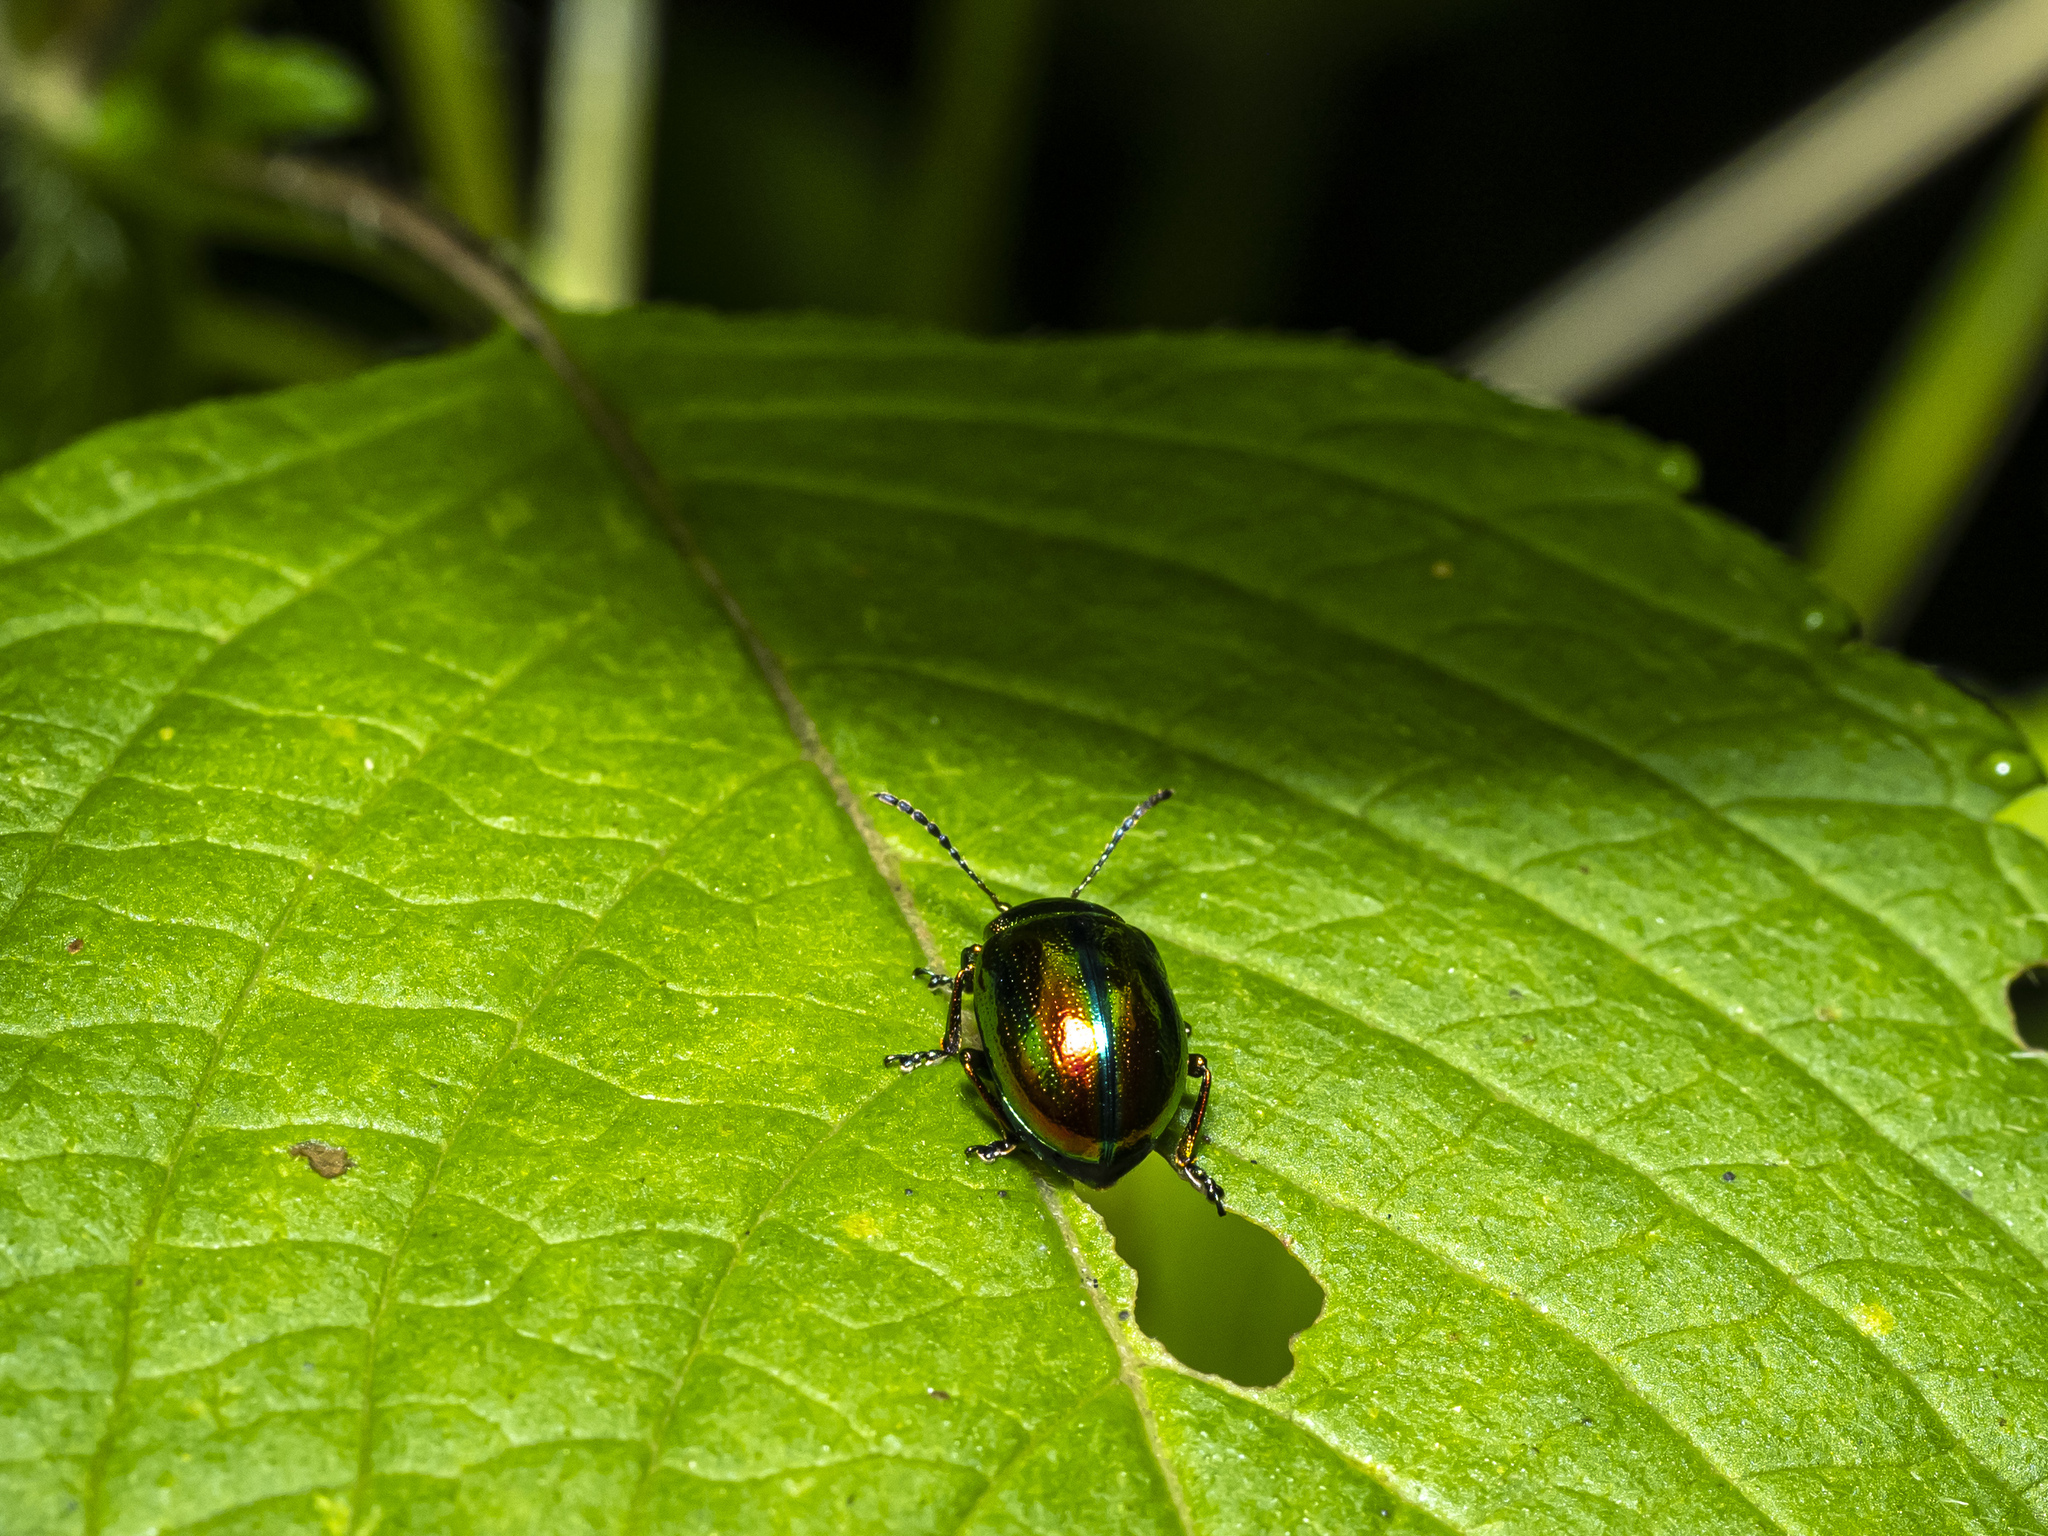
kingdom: Animalia
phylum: Arthropoda
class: Insecta
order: Coleoptera
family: Chrysomelidae
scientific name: Chrysomelidae
